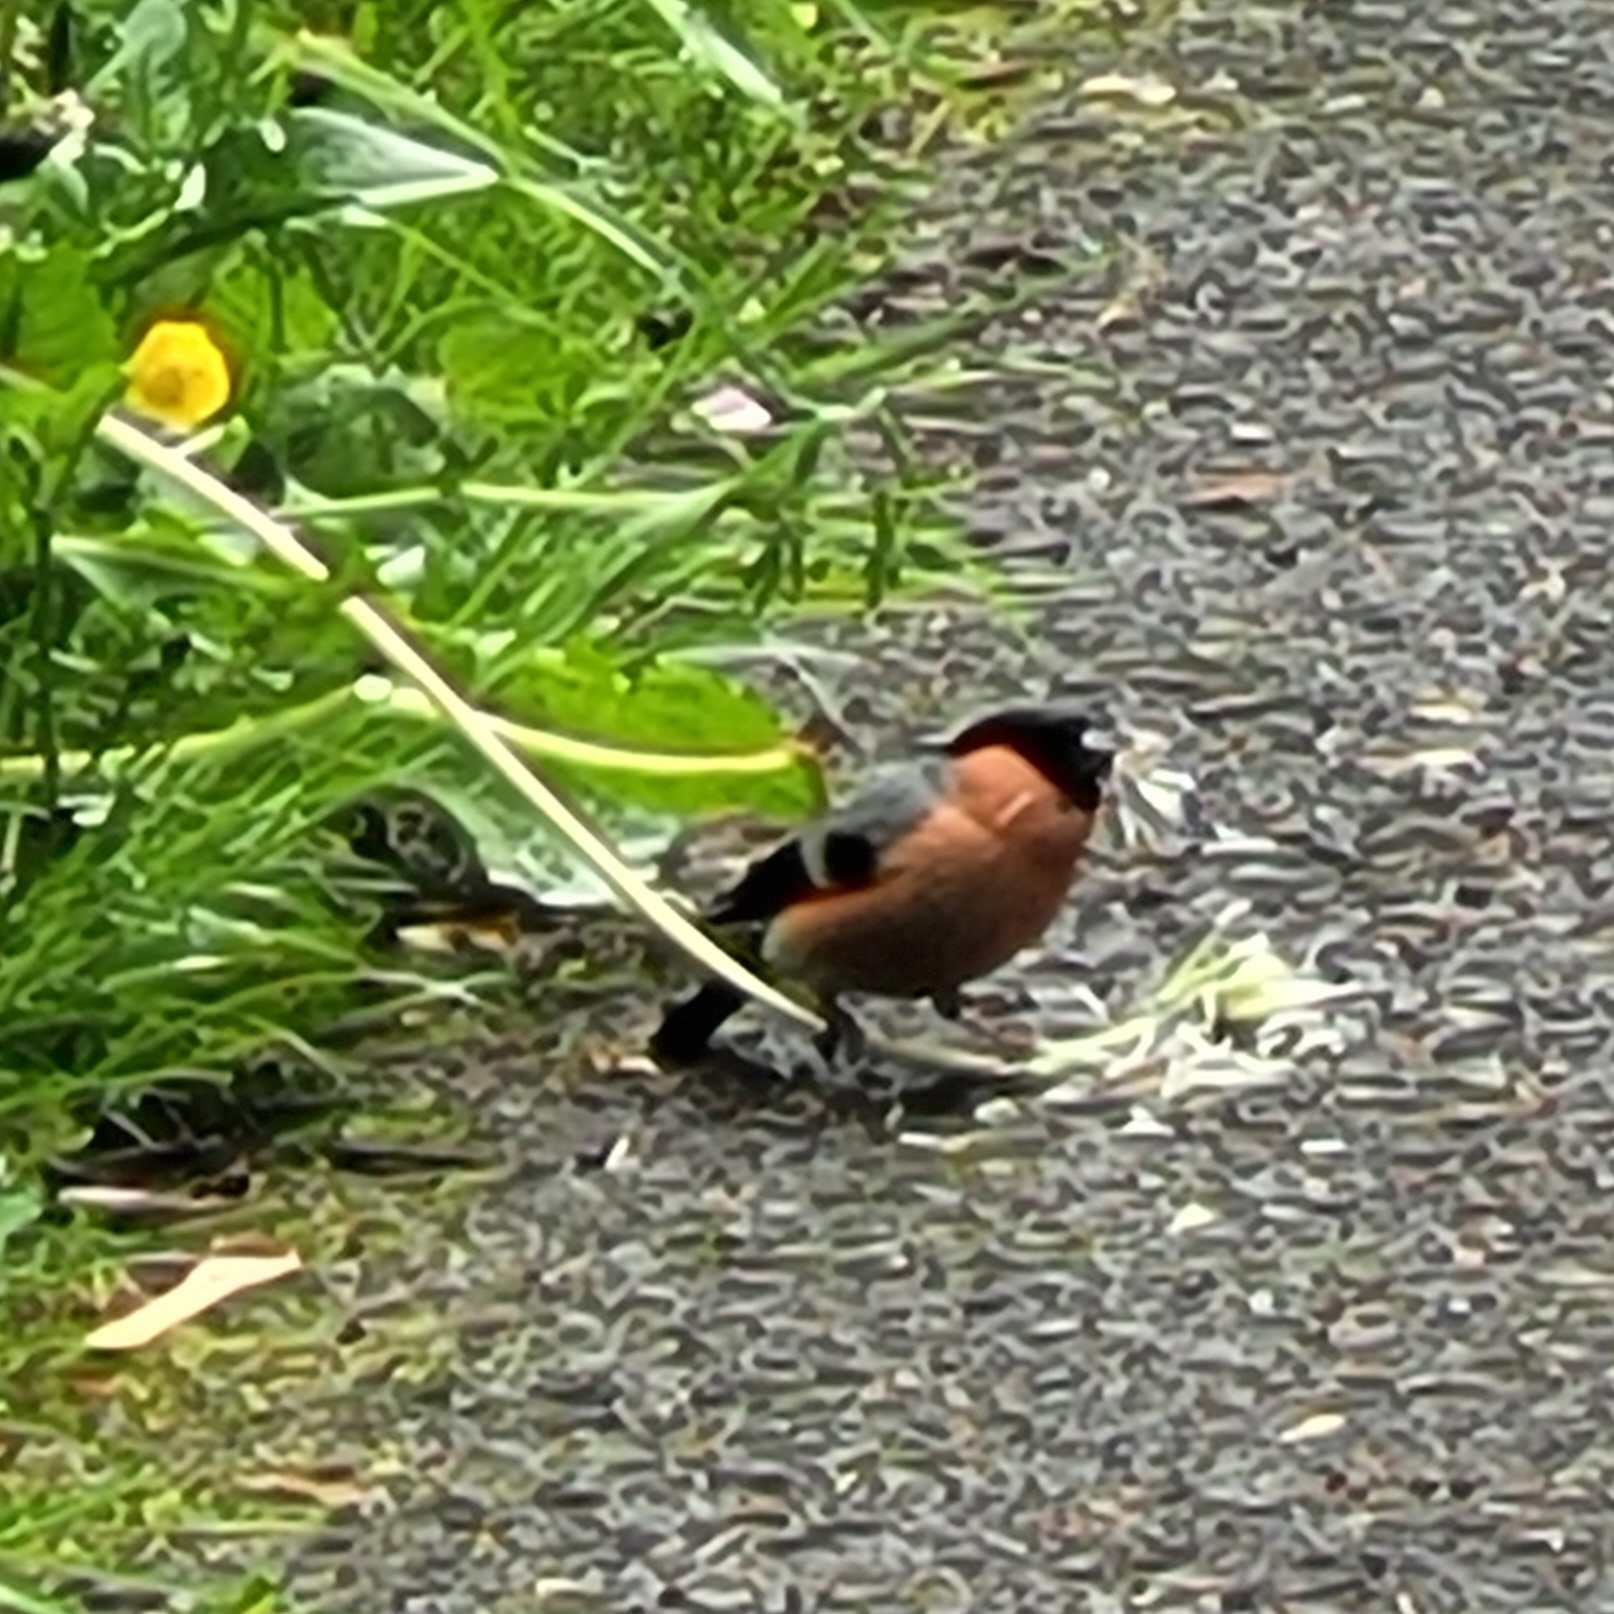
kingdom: Animalia
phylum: Chordata
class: Aves
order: Passeriformes
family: Fringillidae
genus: Pyrrhula
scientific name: Pyrrhula pyrrhula
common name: Eurasian bullfinch
